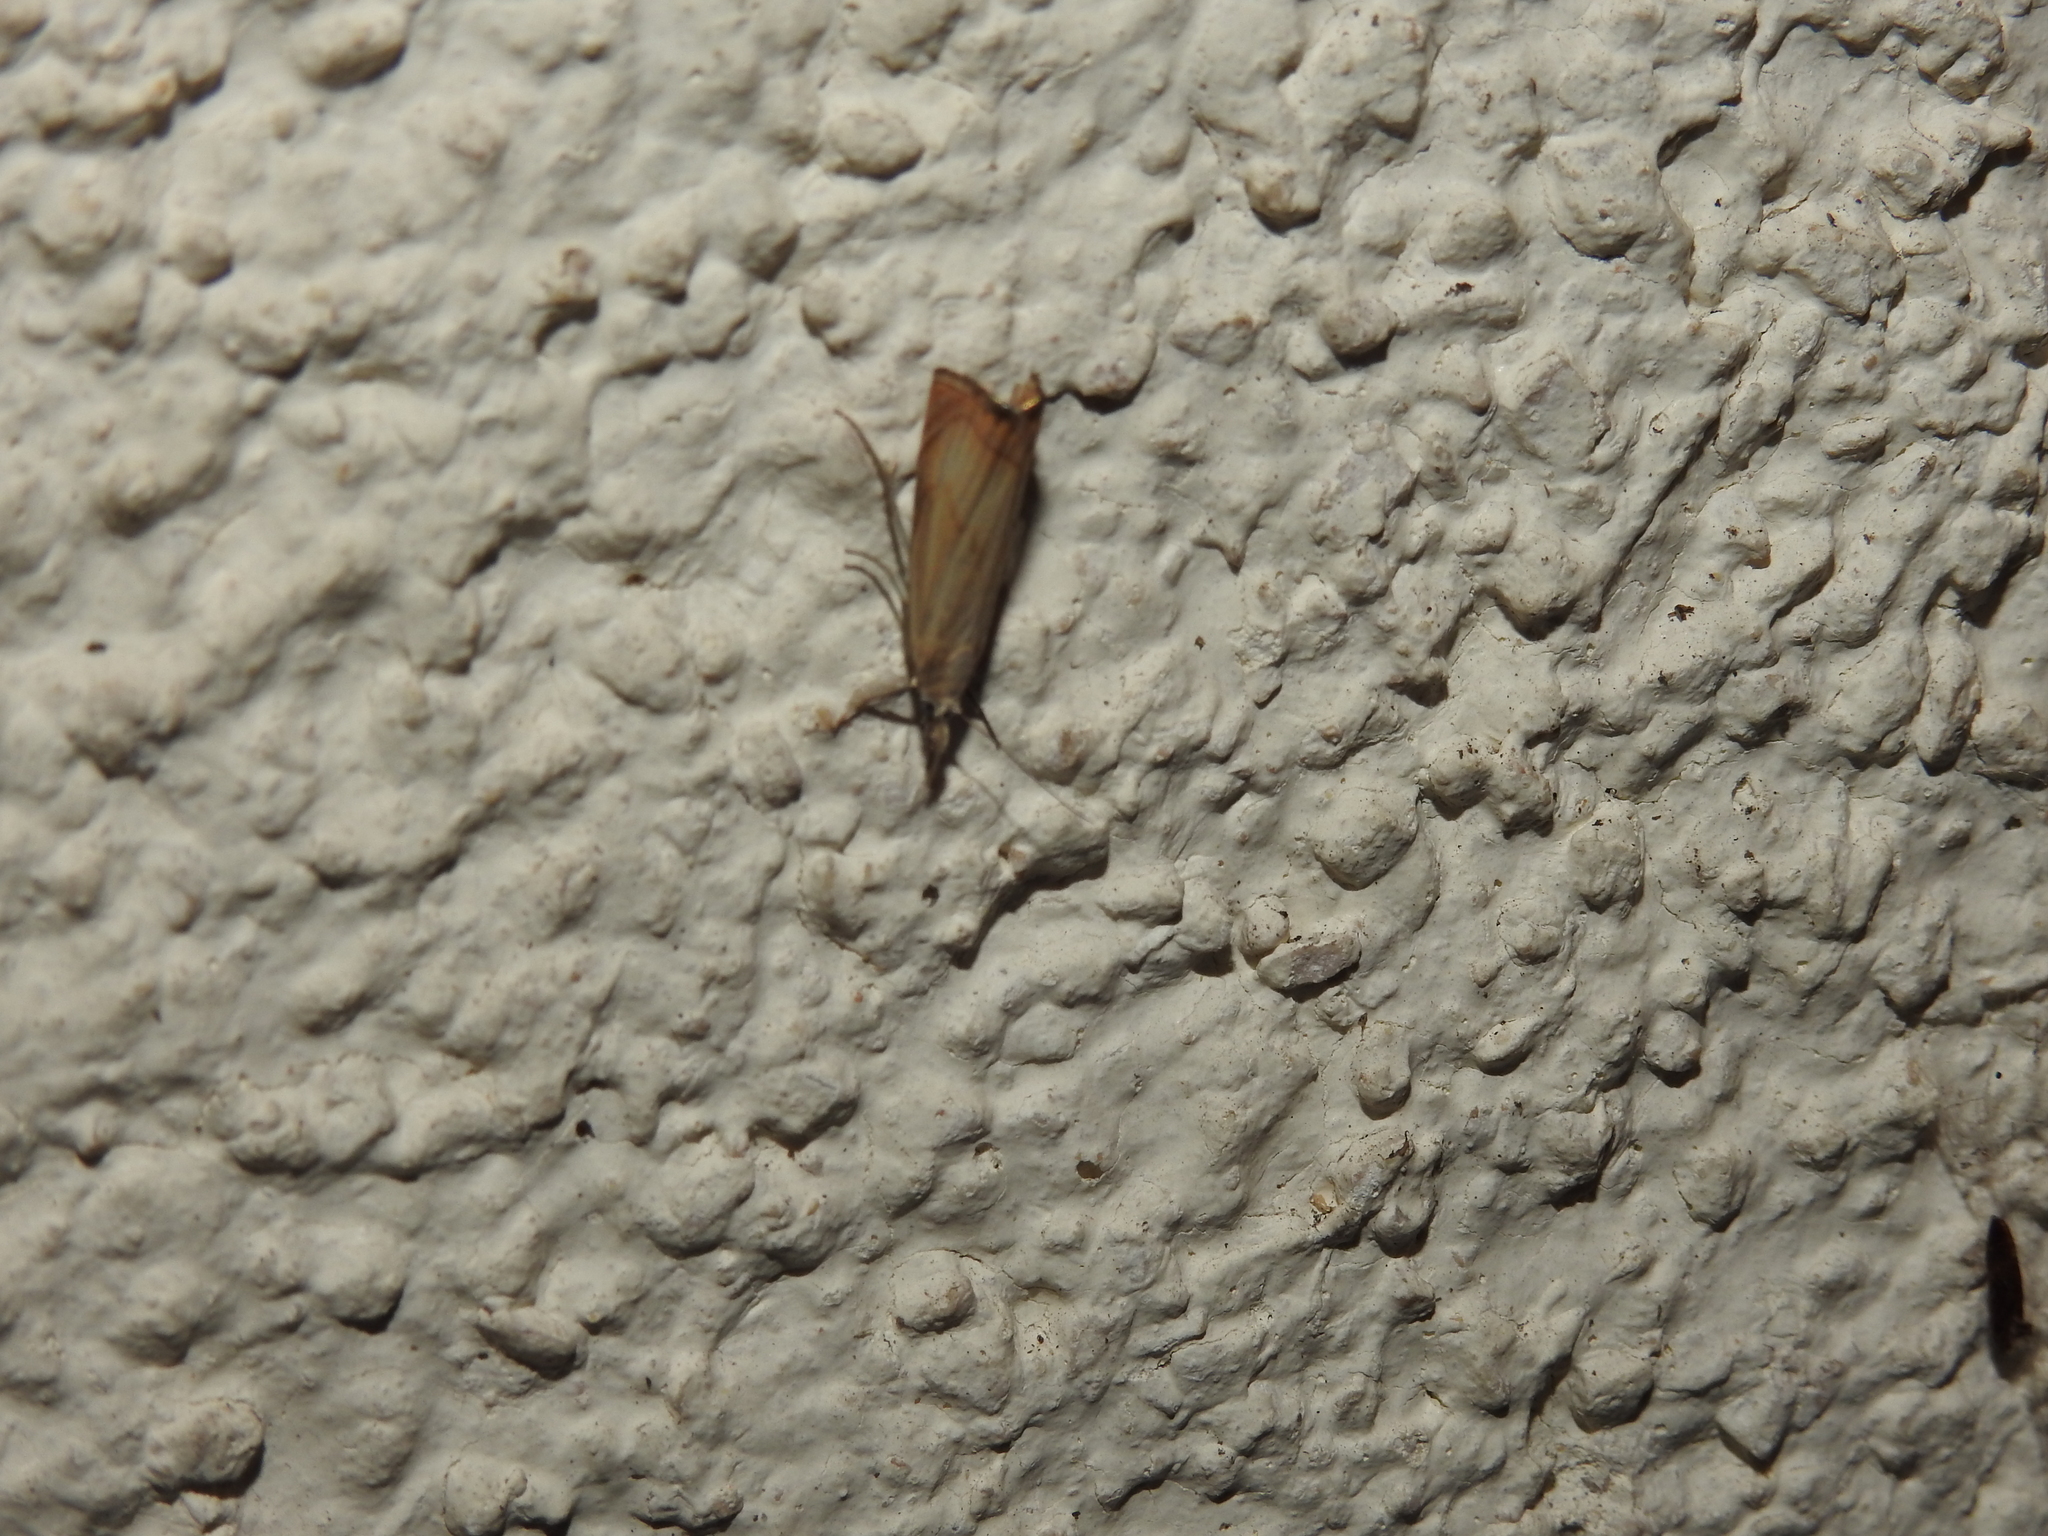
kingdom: Animalia
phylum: Arthropoda
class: Insecta
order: Lepidoptera
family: Crambidae
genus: Chrysoteuchia
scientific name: Chrysoteuchia culmella
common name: Garden grass-veneer
